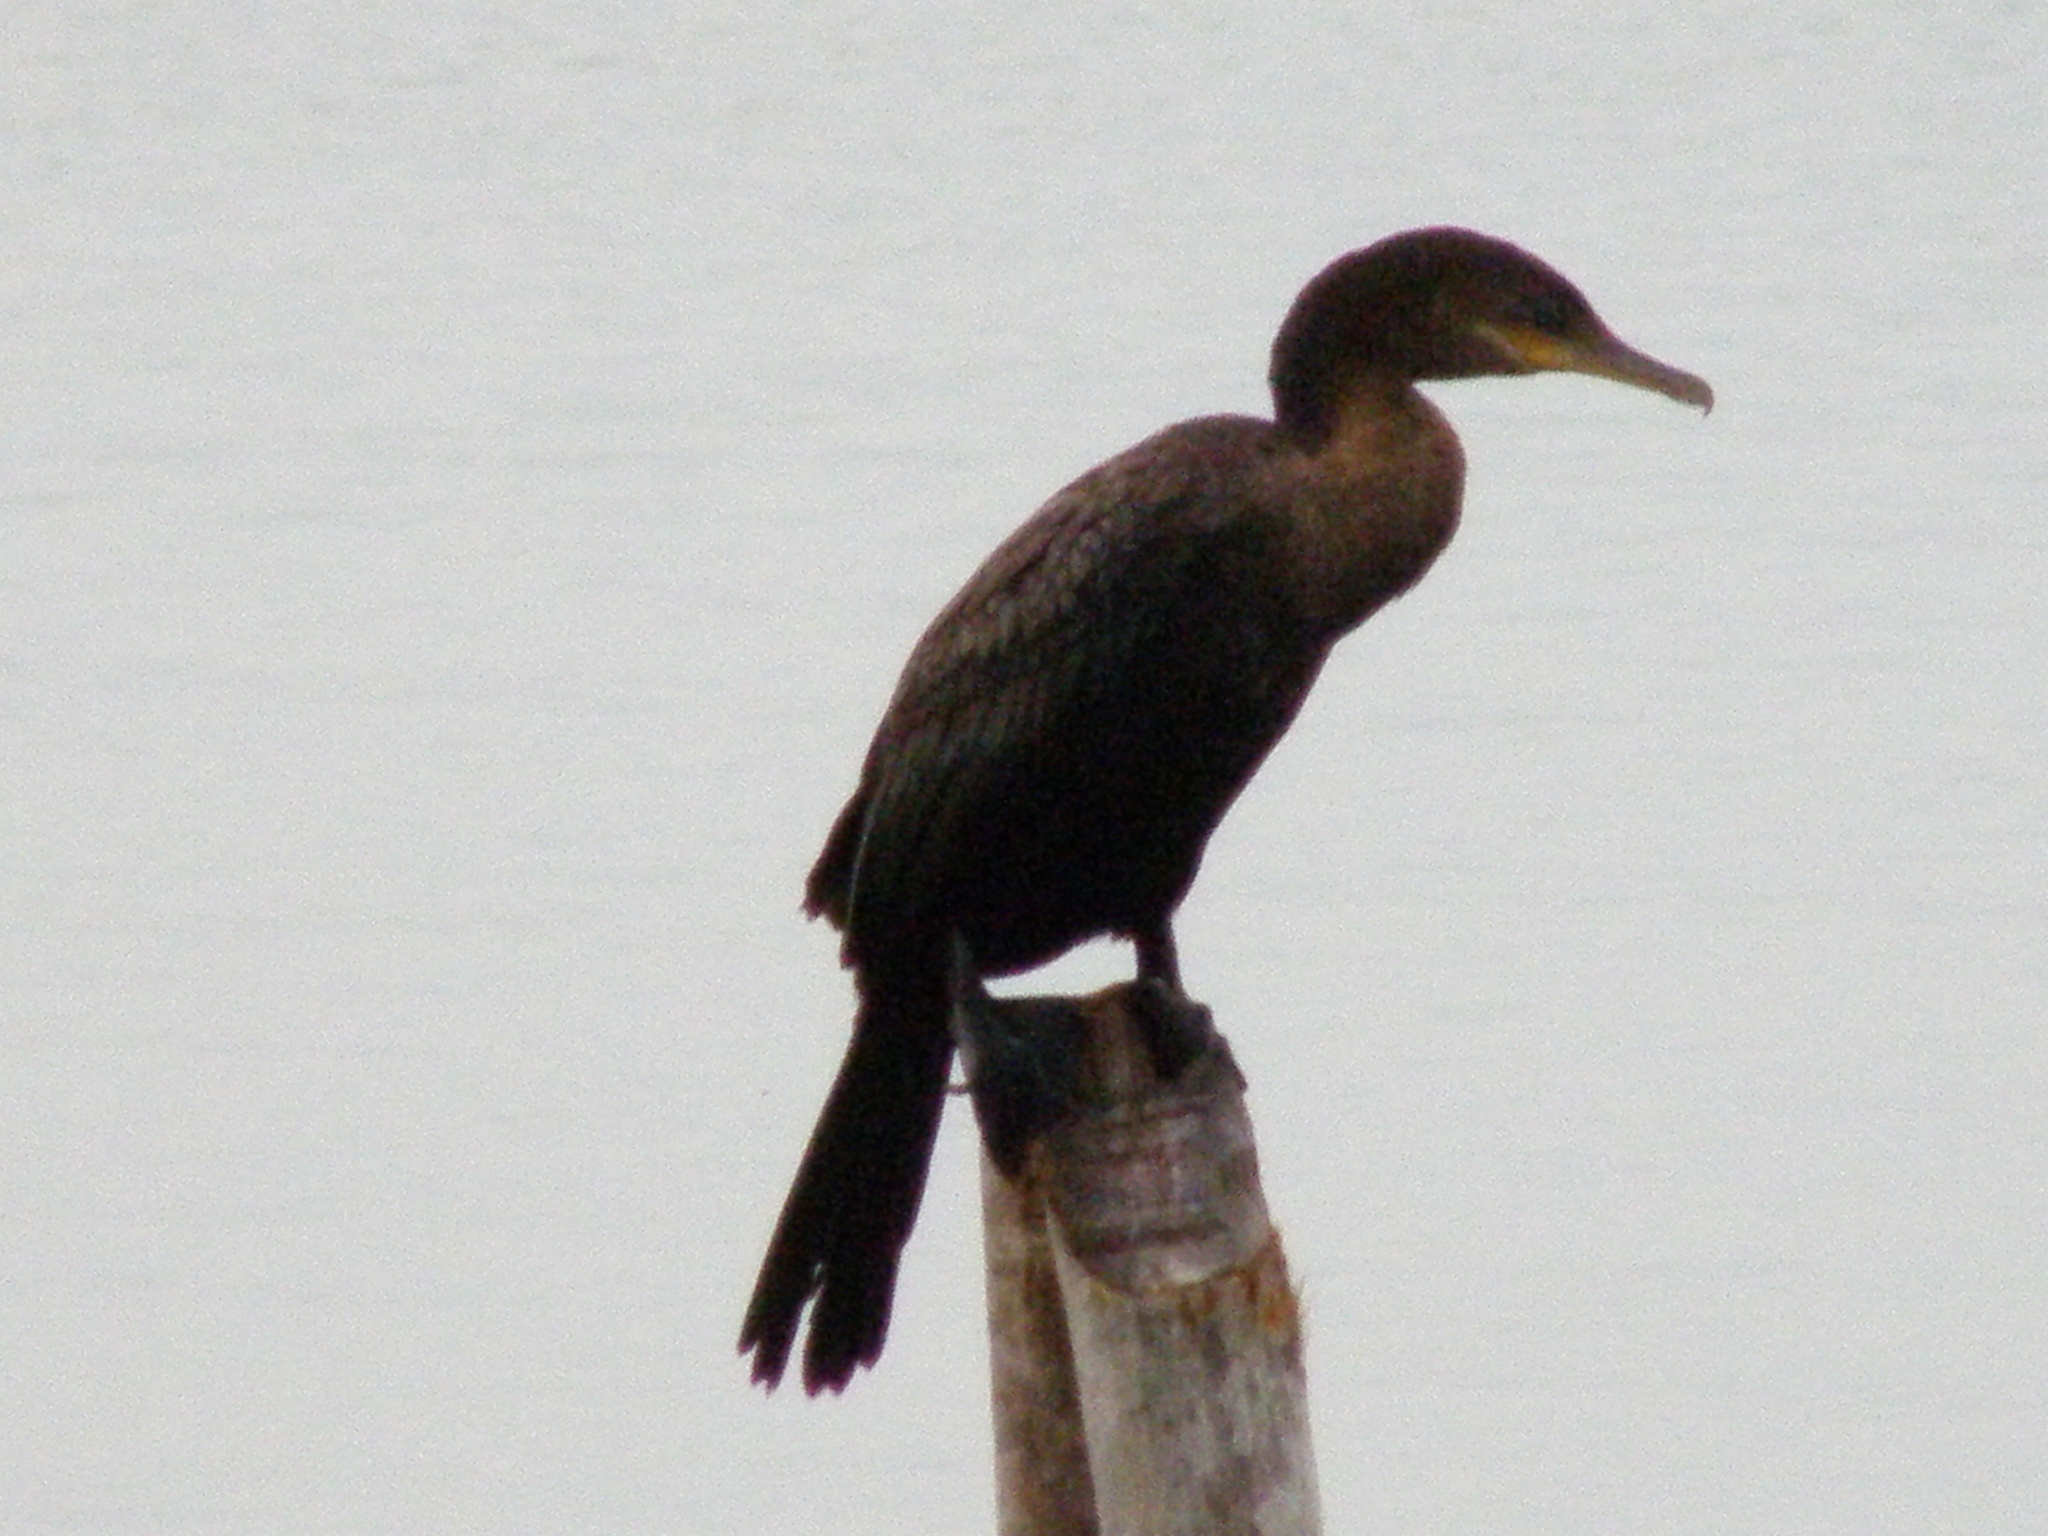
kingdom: Animalia
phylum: Chordata
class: Aves
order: Suliformes
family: Phalacrocoracidae
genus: Phalacrocorax
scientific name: Phalacrocorax brasilianus
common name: Neotropic cormorant
